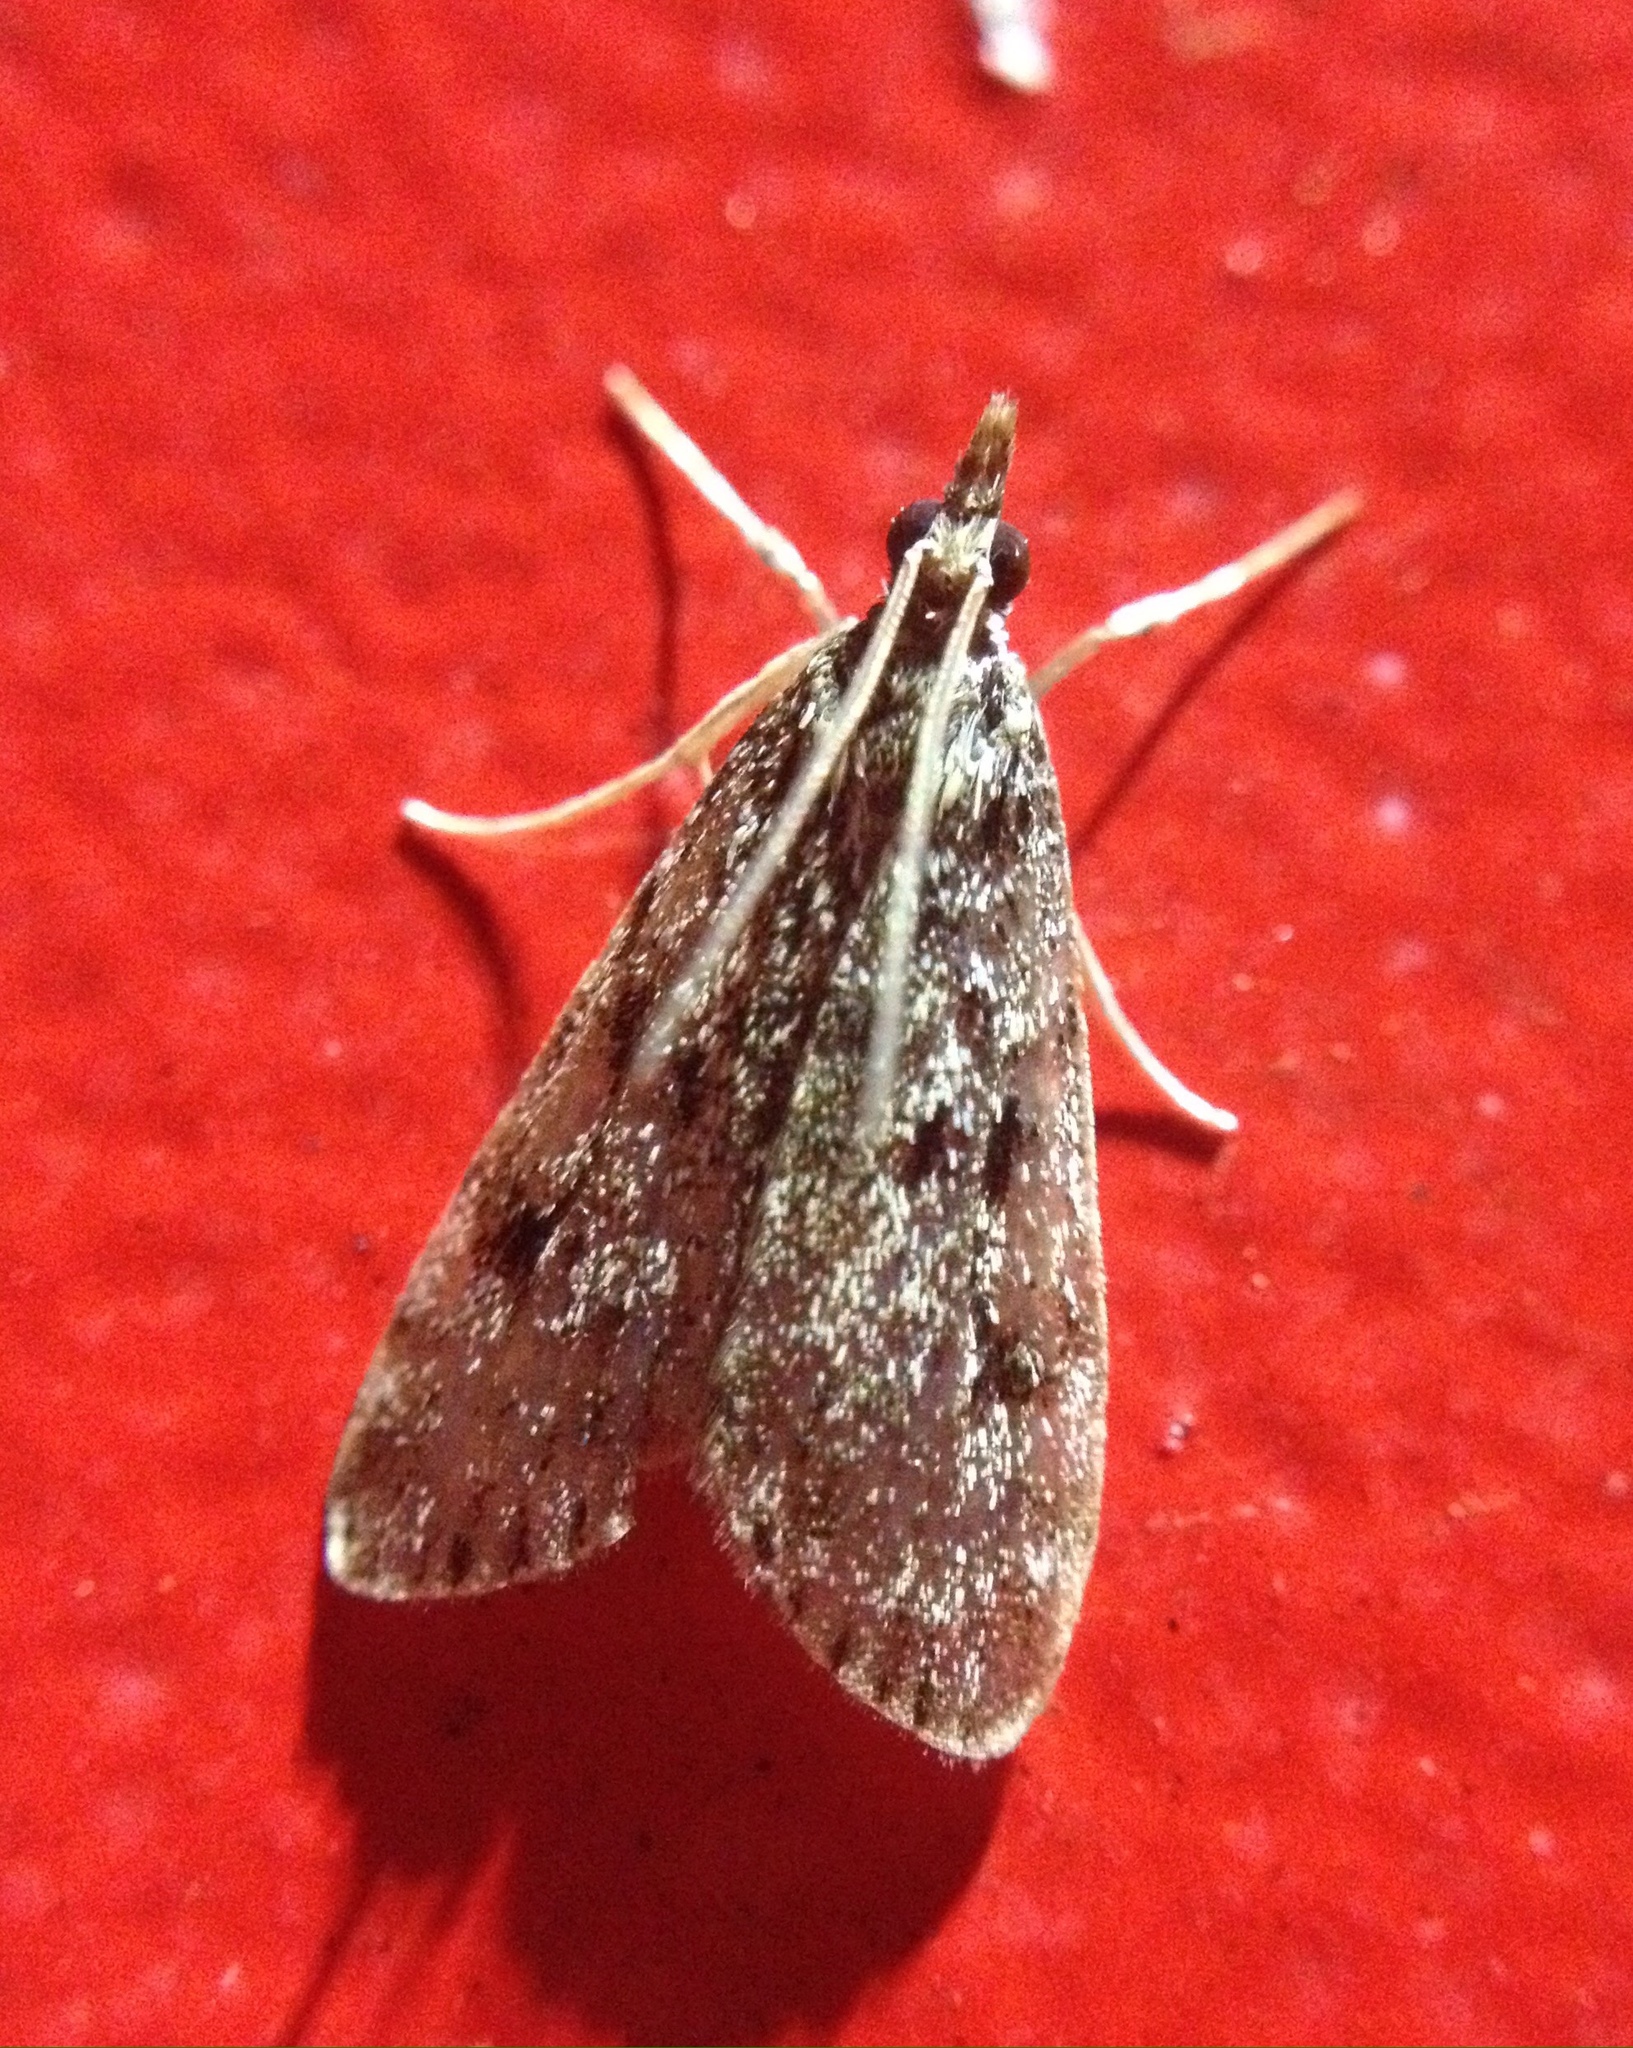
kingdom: Animalia
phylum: Arthropoda
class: Insecta
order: Lepidoptera
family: Crambidae
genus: Eudonia
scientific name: Eudonia truncicolella
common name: Ground-moss grey
